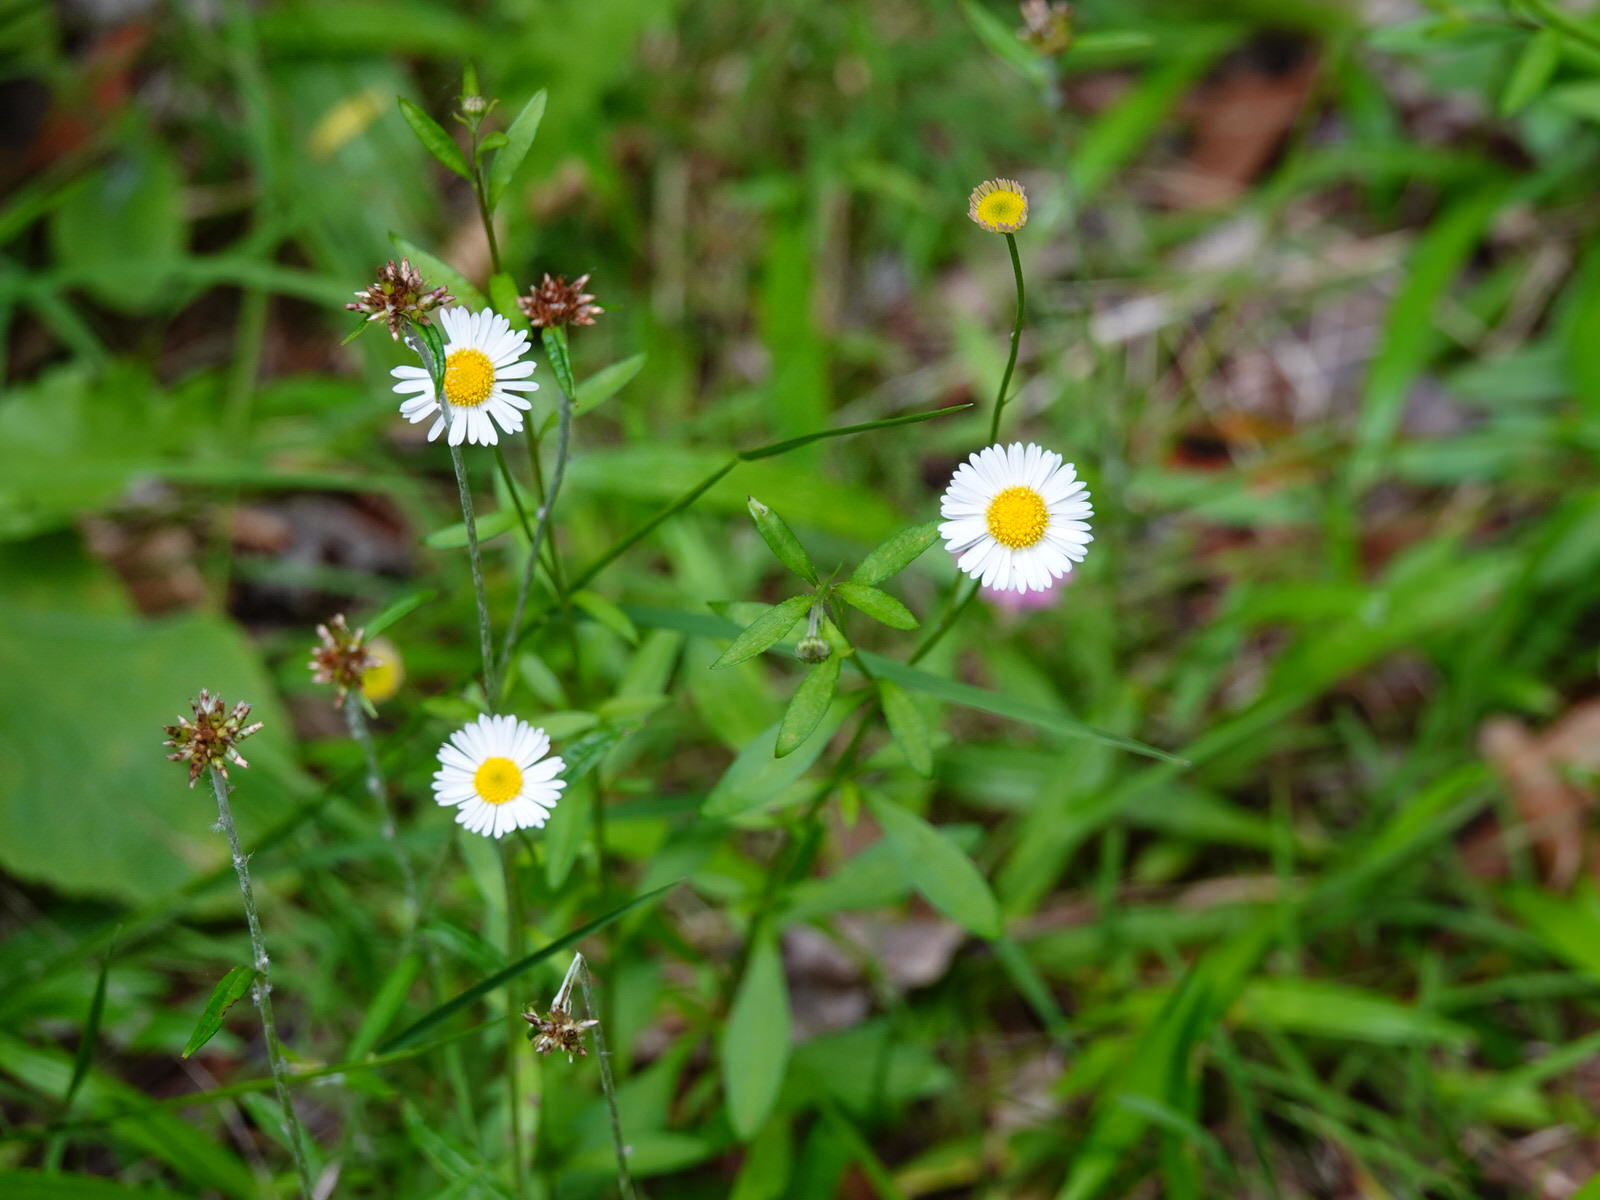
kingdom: Plantae
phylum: Tracheophyta
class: Magnoliopsida
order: Asterales
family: Asteraceae
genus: Erigeron
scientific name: Erigeron karvinskianus
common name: Mexican fleabane
